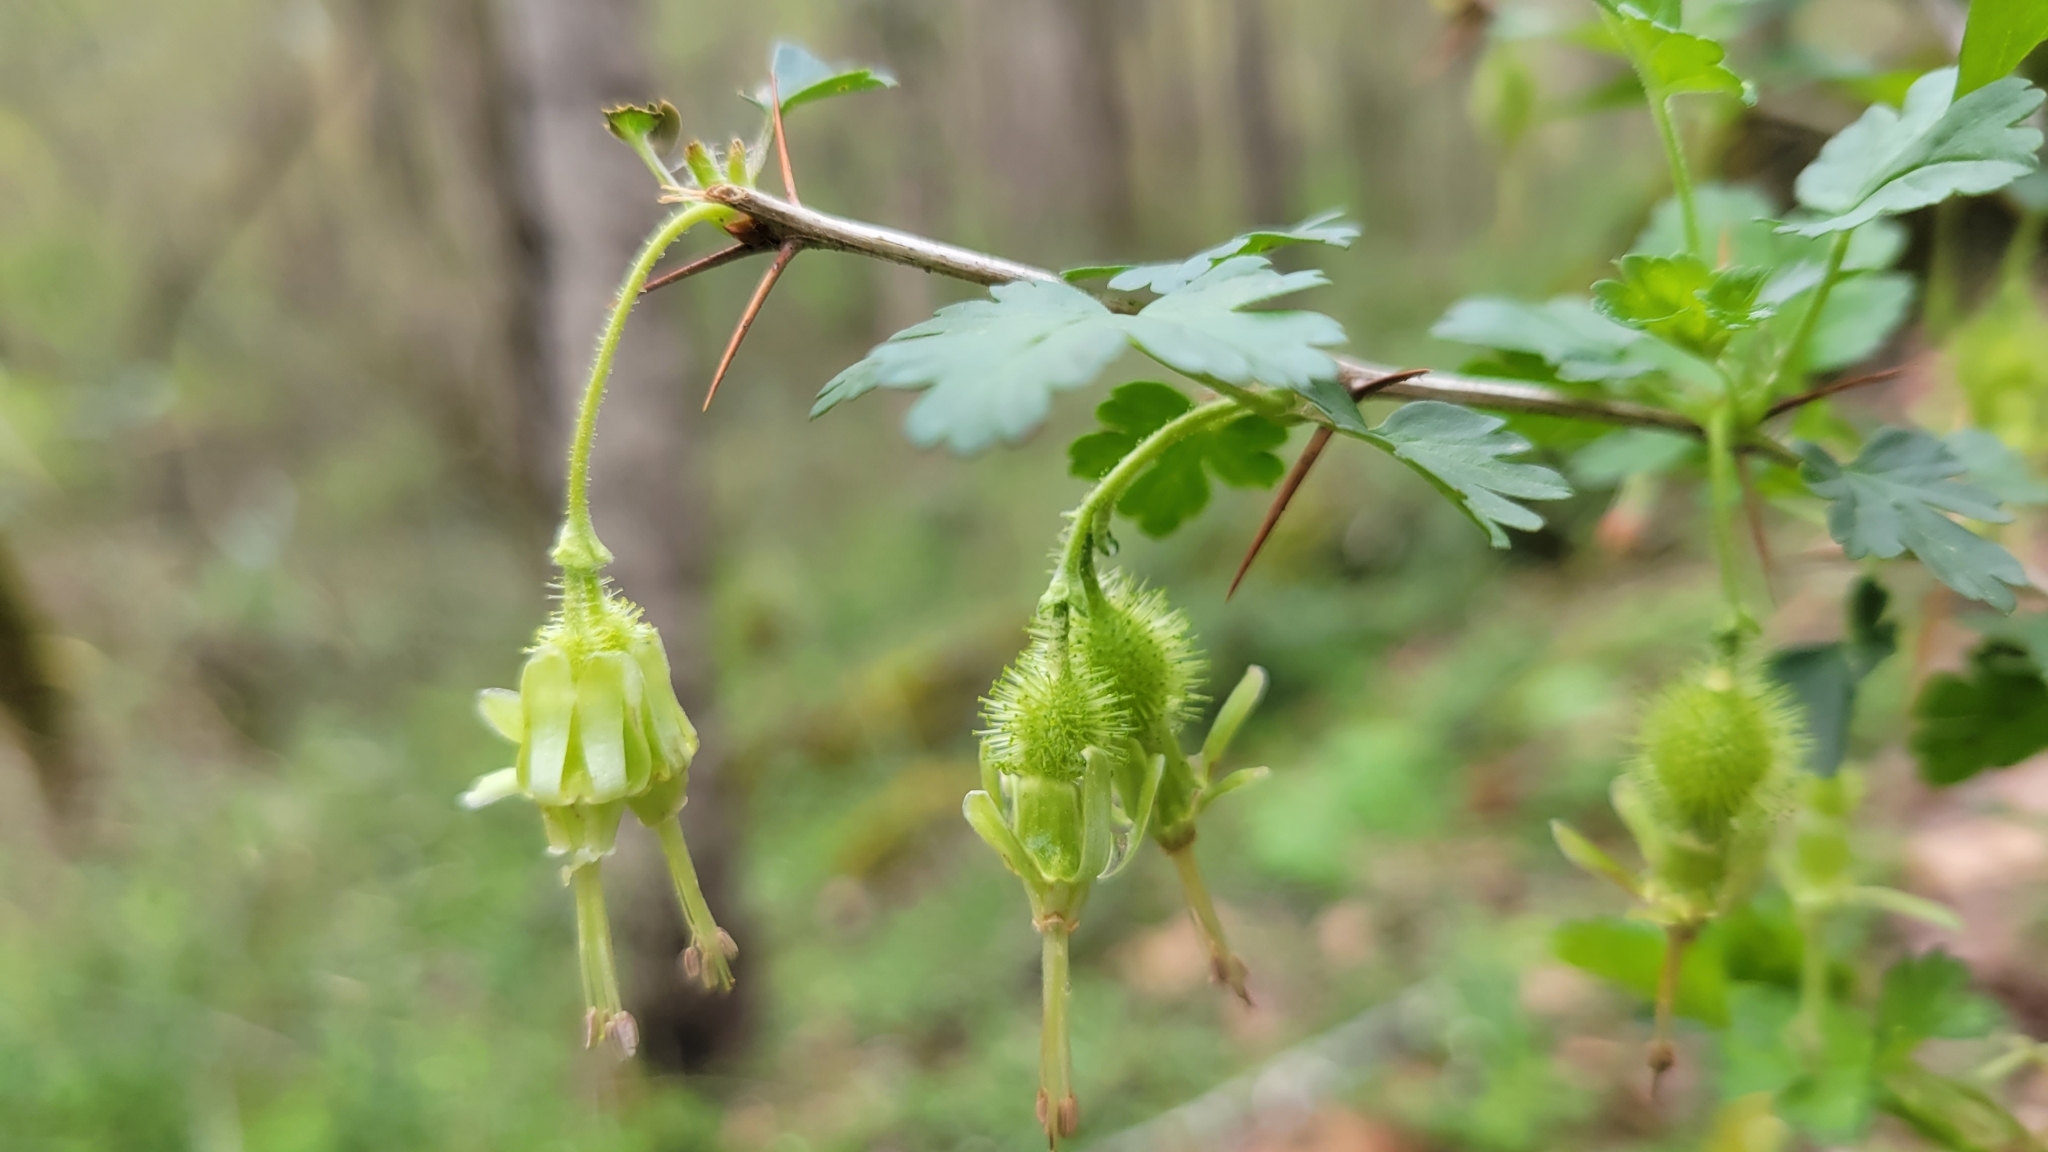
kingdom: Plantae
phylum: Tracheophyta
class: Magnoliopsida
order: Saxifragales
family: Grossulariaceae
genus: Ribes
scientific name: Ribes echinellum
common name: Miccosukee gooseberry
